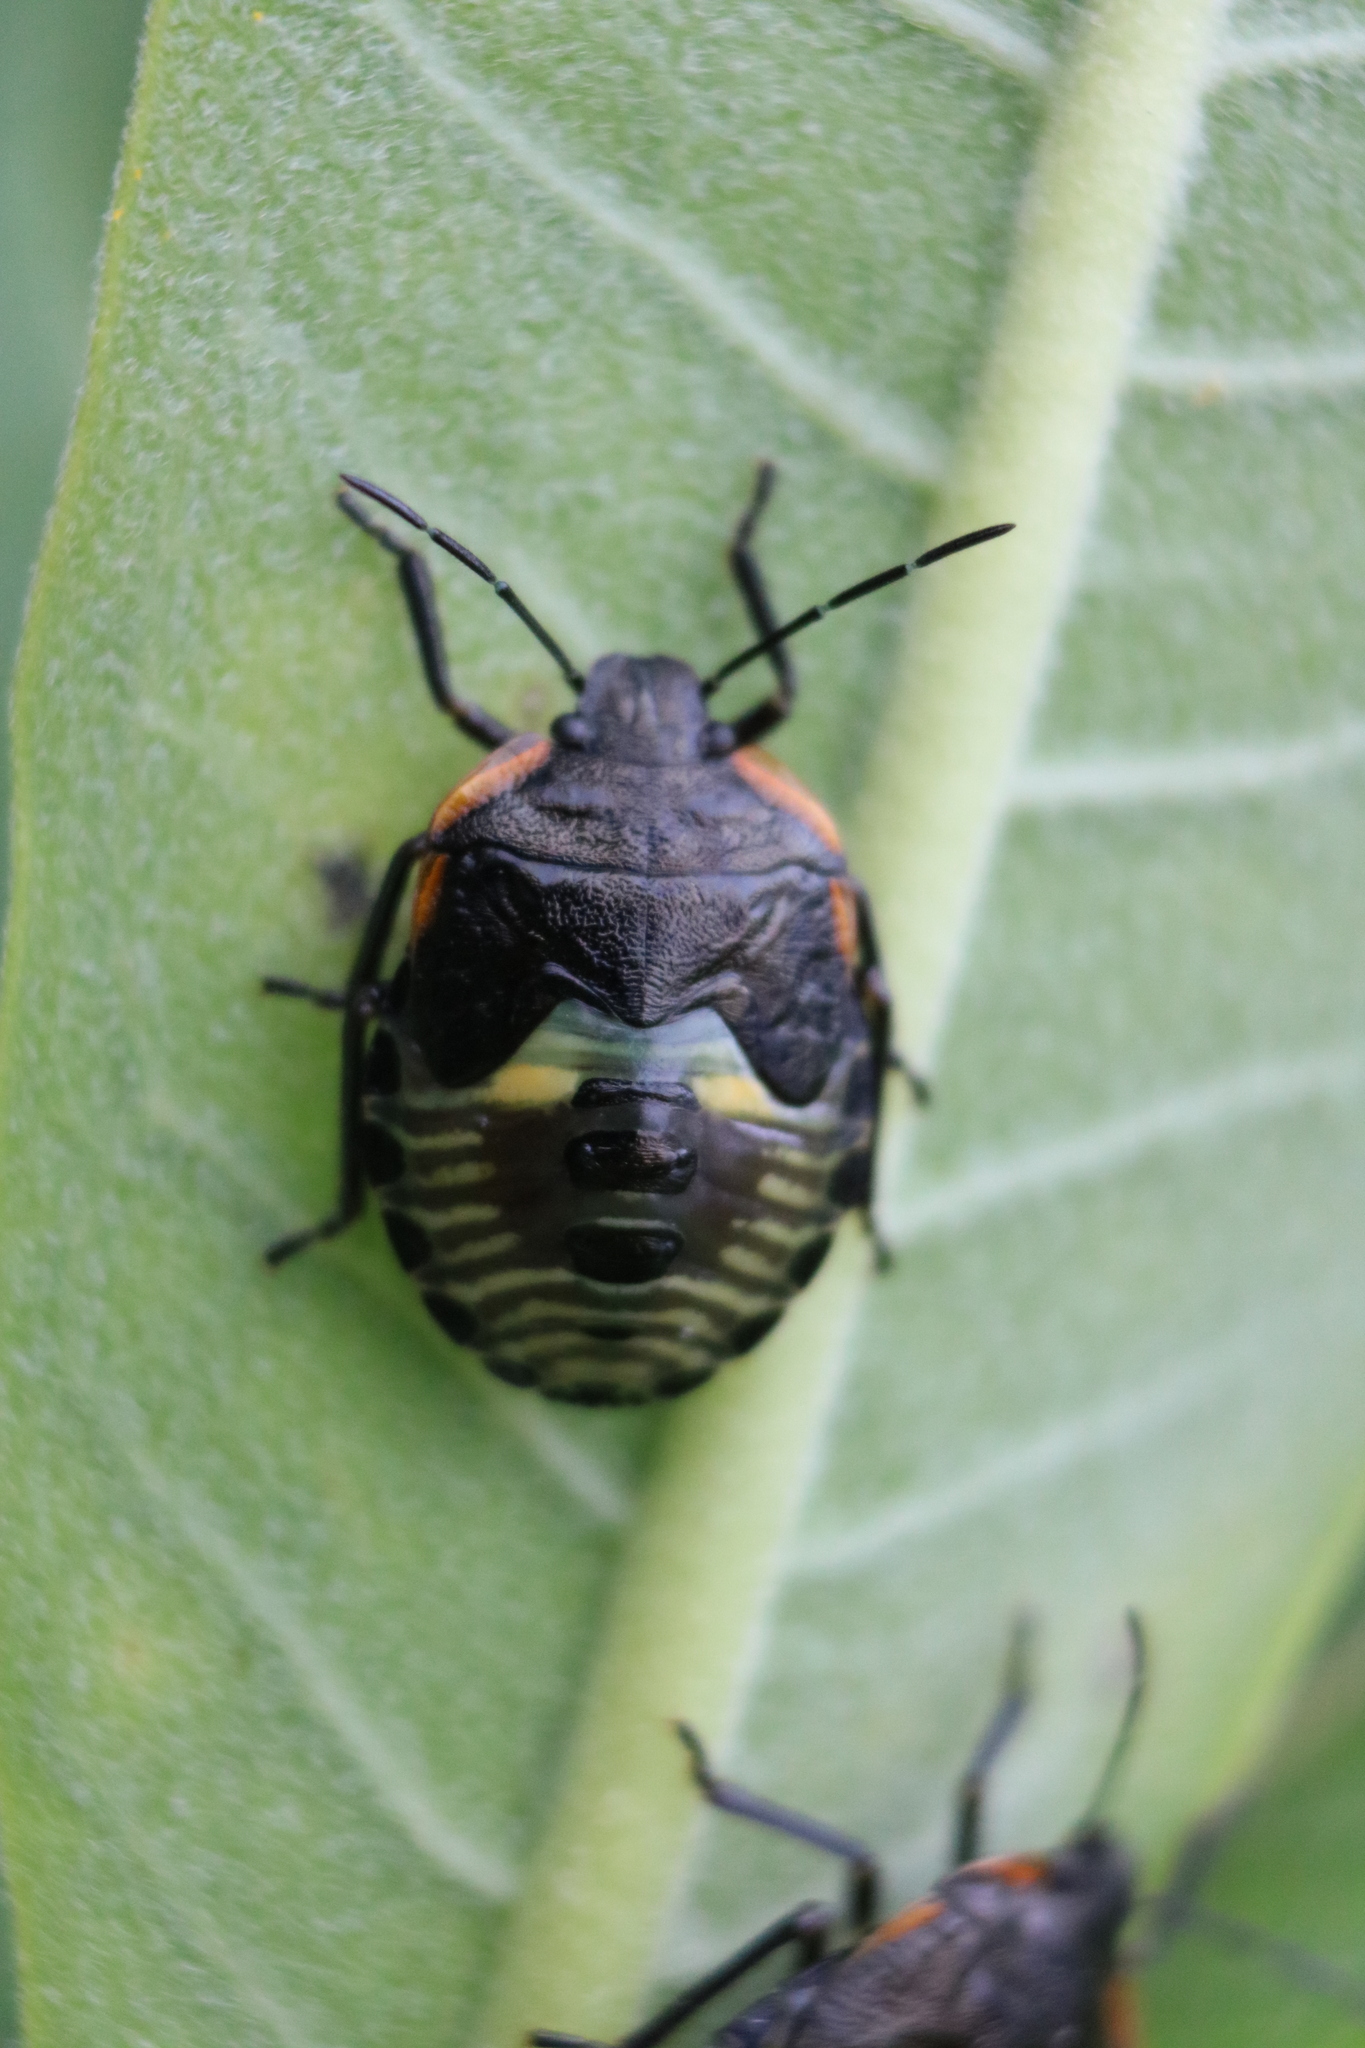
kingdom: Animalia
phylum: Arthropoda
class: Insecta
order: Hemiptera
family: Pentatomidae
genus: Chinavia
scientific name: Chinavia hilaris
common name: Green stink bug
